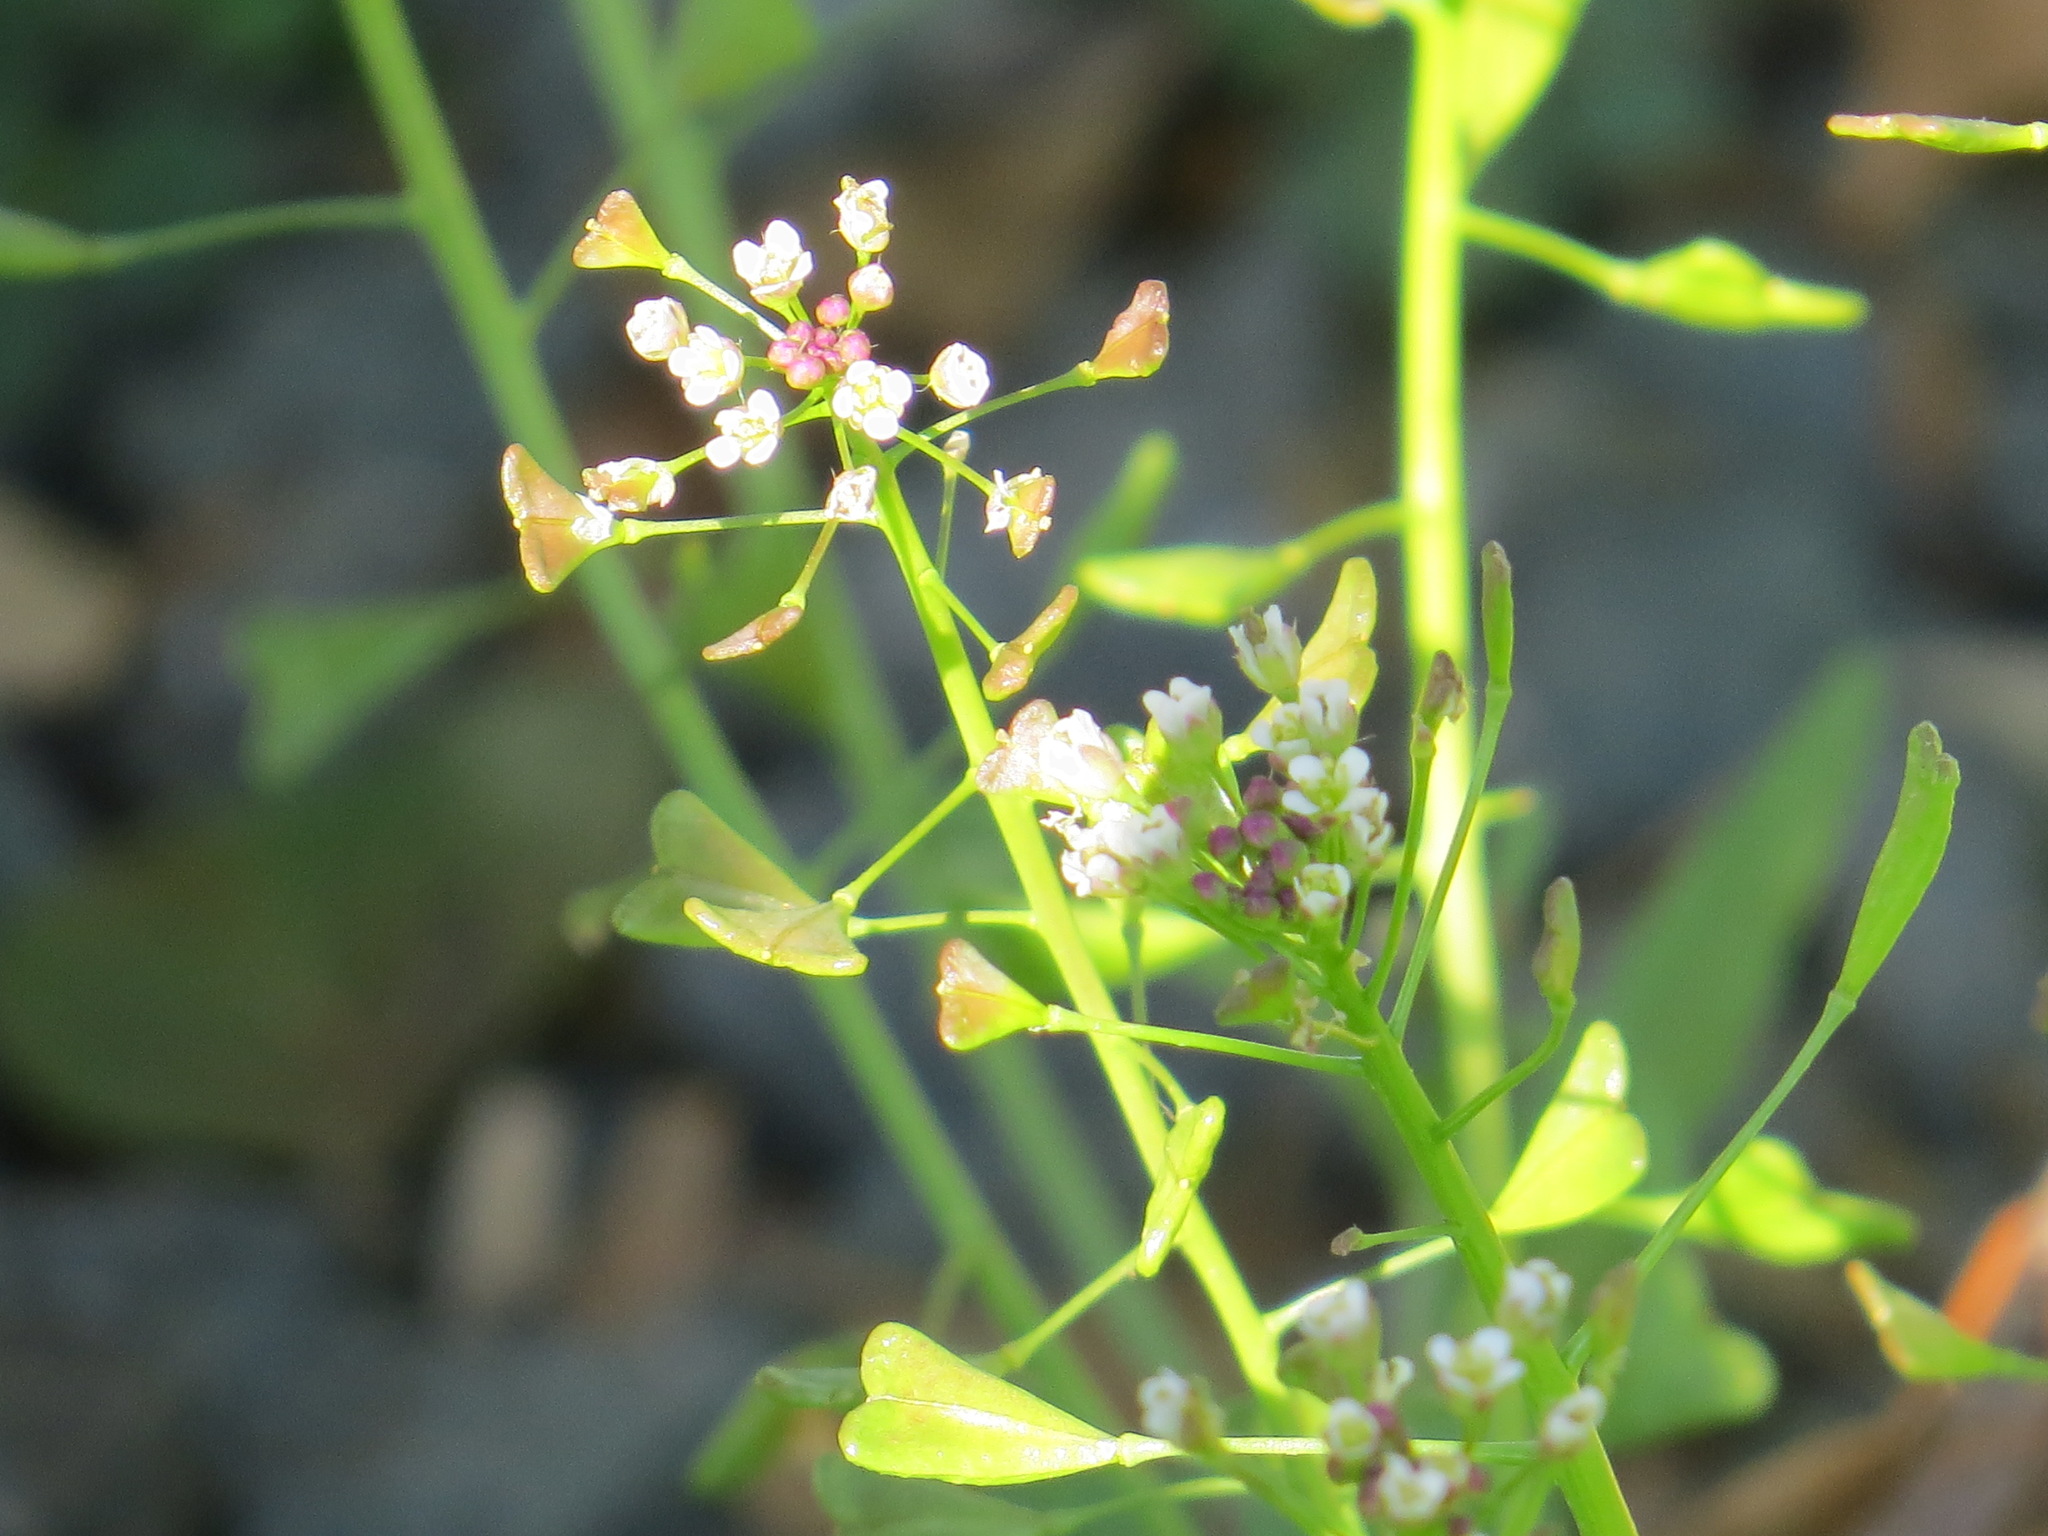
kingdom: Plantae
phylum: Tracheophyta
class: Magnoliopsida
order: Brassicales
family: Brassicaceae
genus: Capsella
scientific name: Capsella bursa-pastoris
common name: Shepherd's purse
